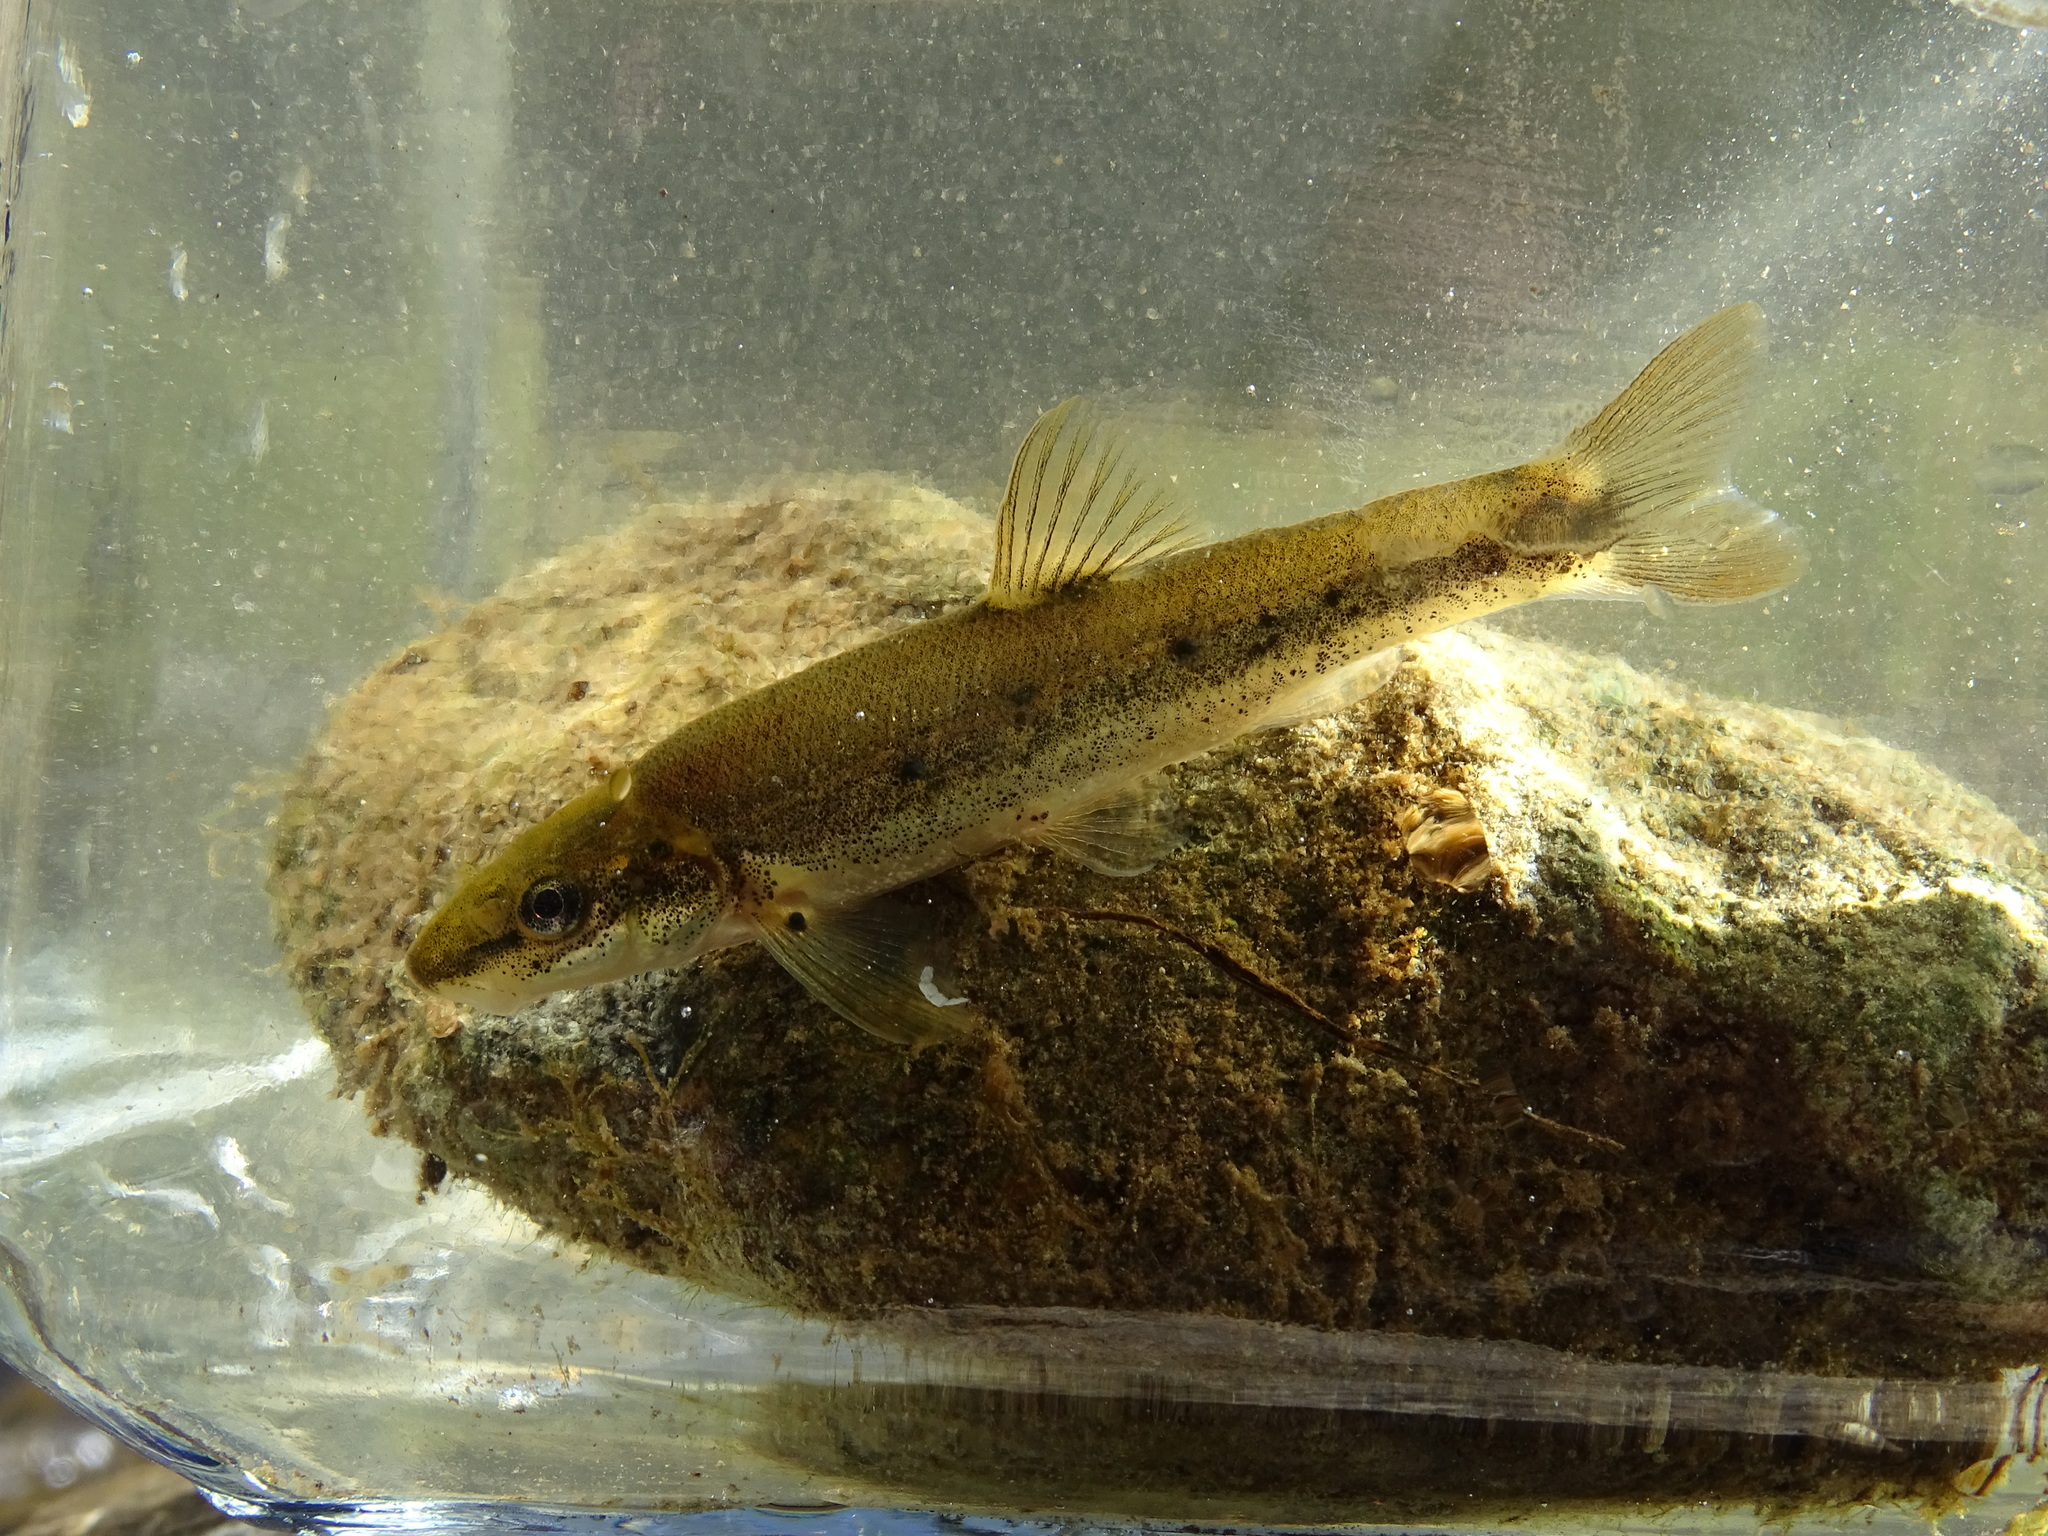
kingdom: Animalia
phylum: Chordata
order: Cypriniformes
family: Cyprinidae
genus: Rhinichthys
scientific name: Rhinichthys cataractae
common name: Longnose dace
